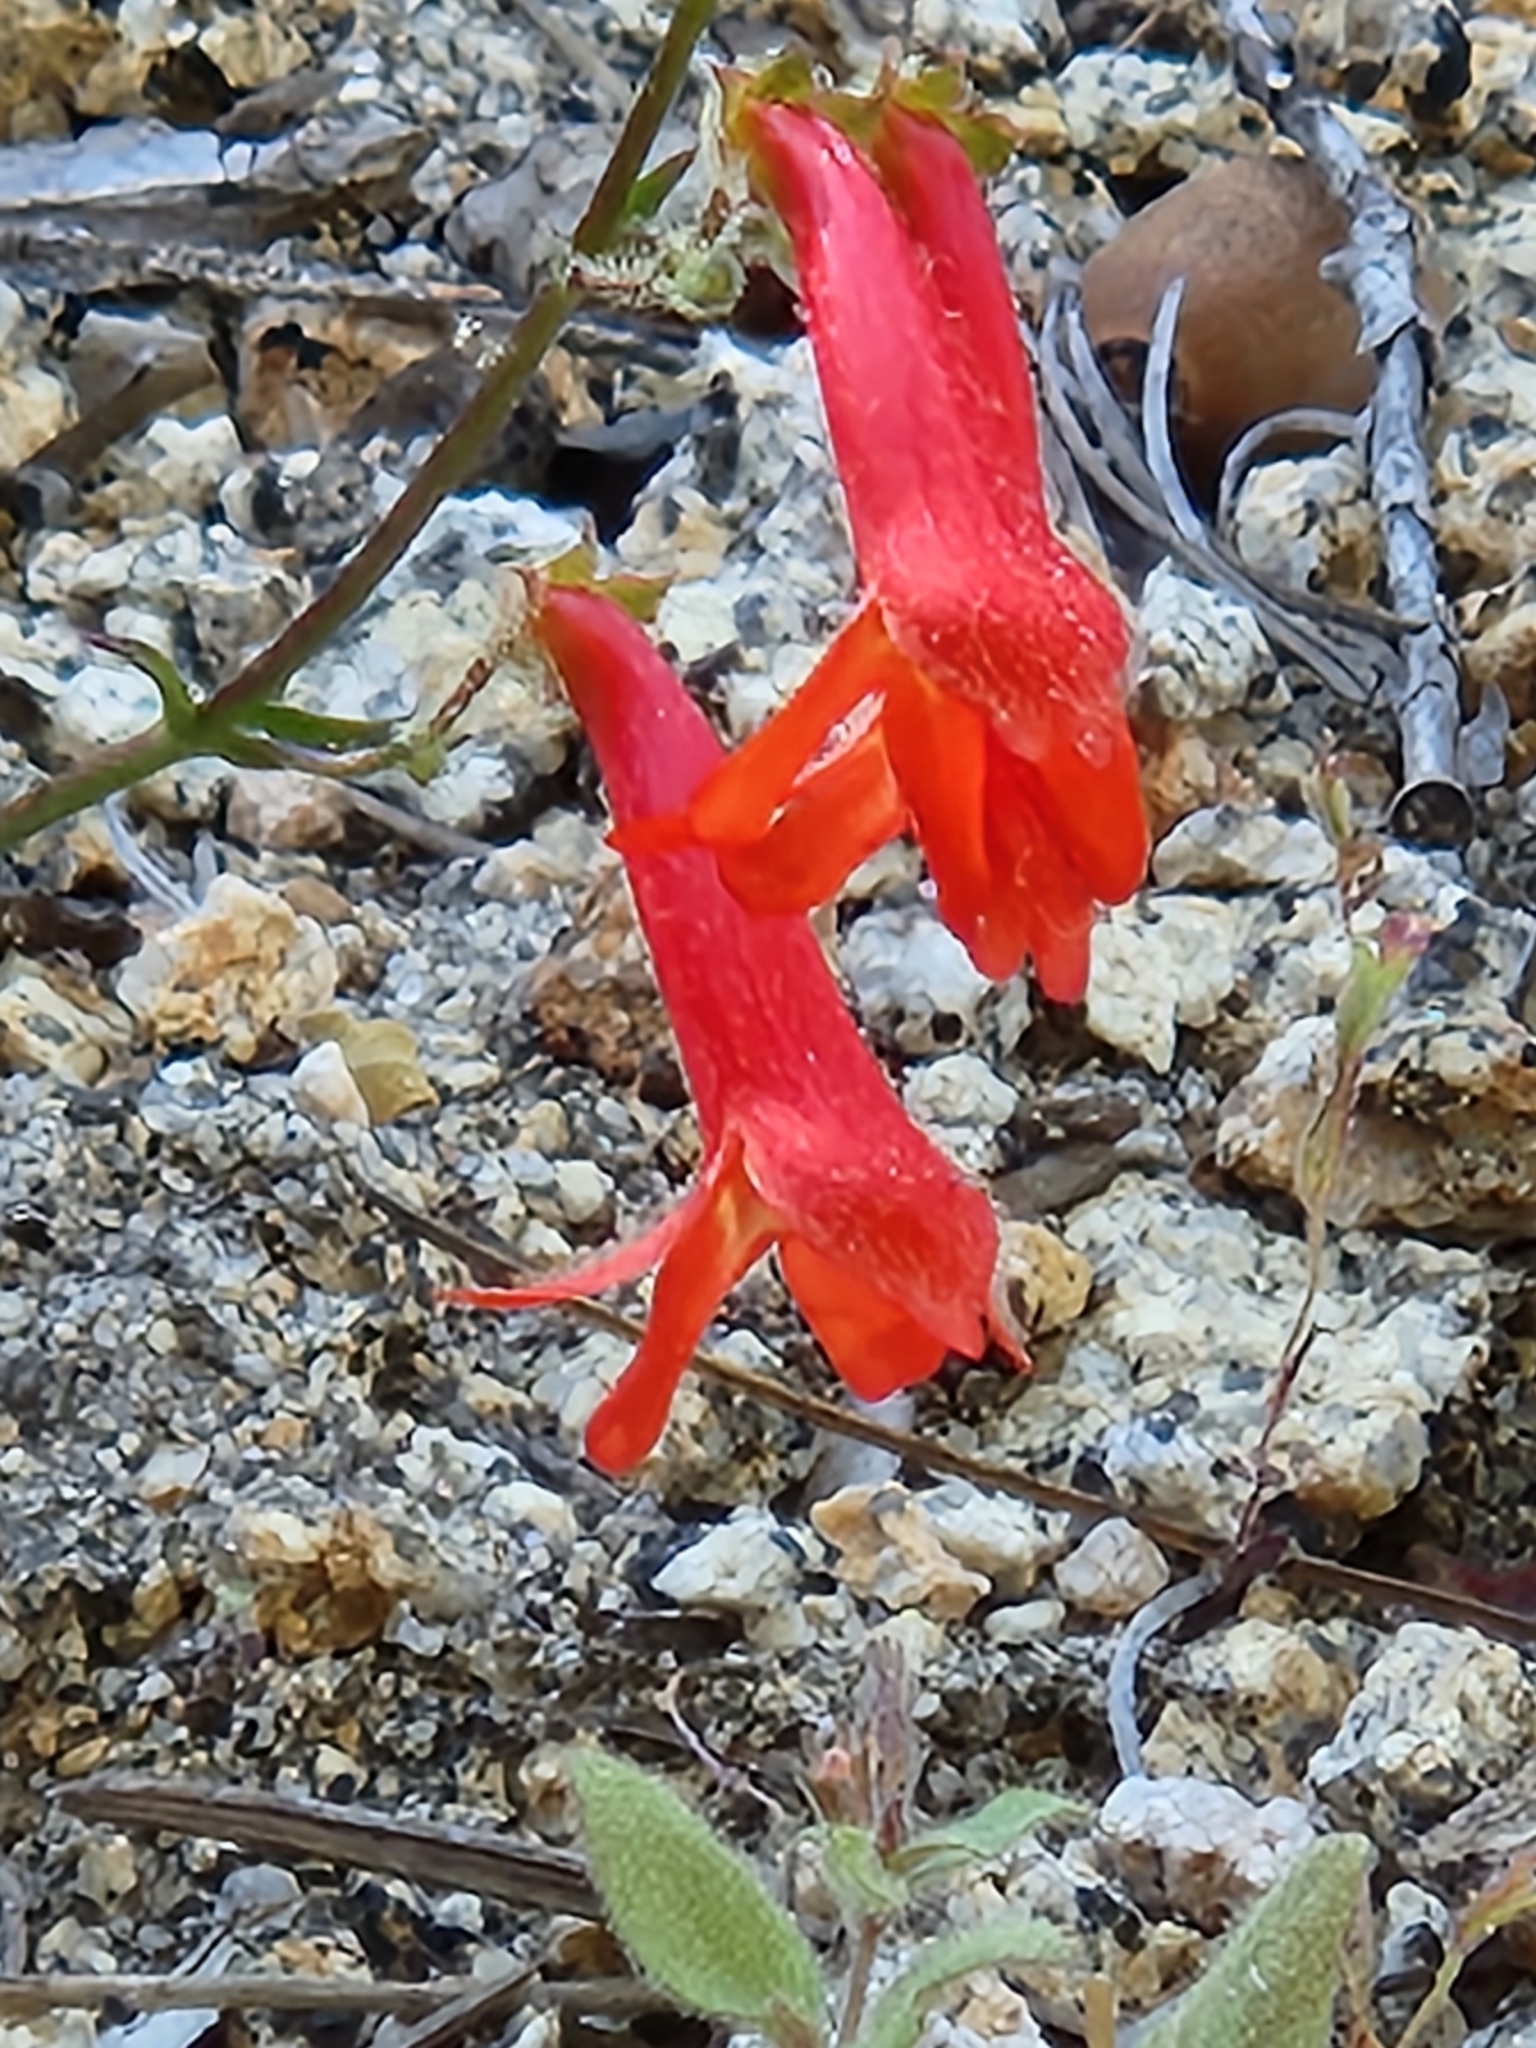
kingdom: Plantae
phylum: Tracheophyta
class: Magnoliopsida
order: Lamiales
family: Plantaginaceae
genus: Penstemon
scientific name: Penstemon rostriflorus
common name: Bridges's penstemon
